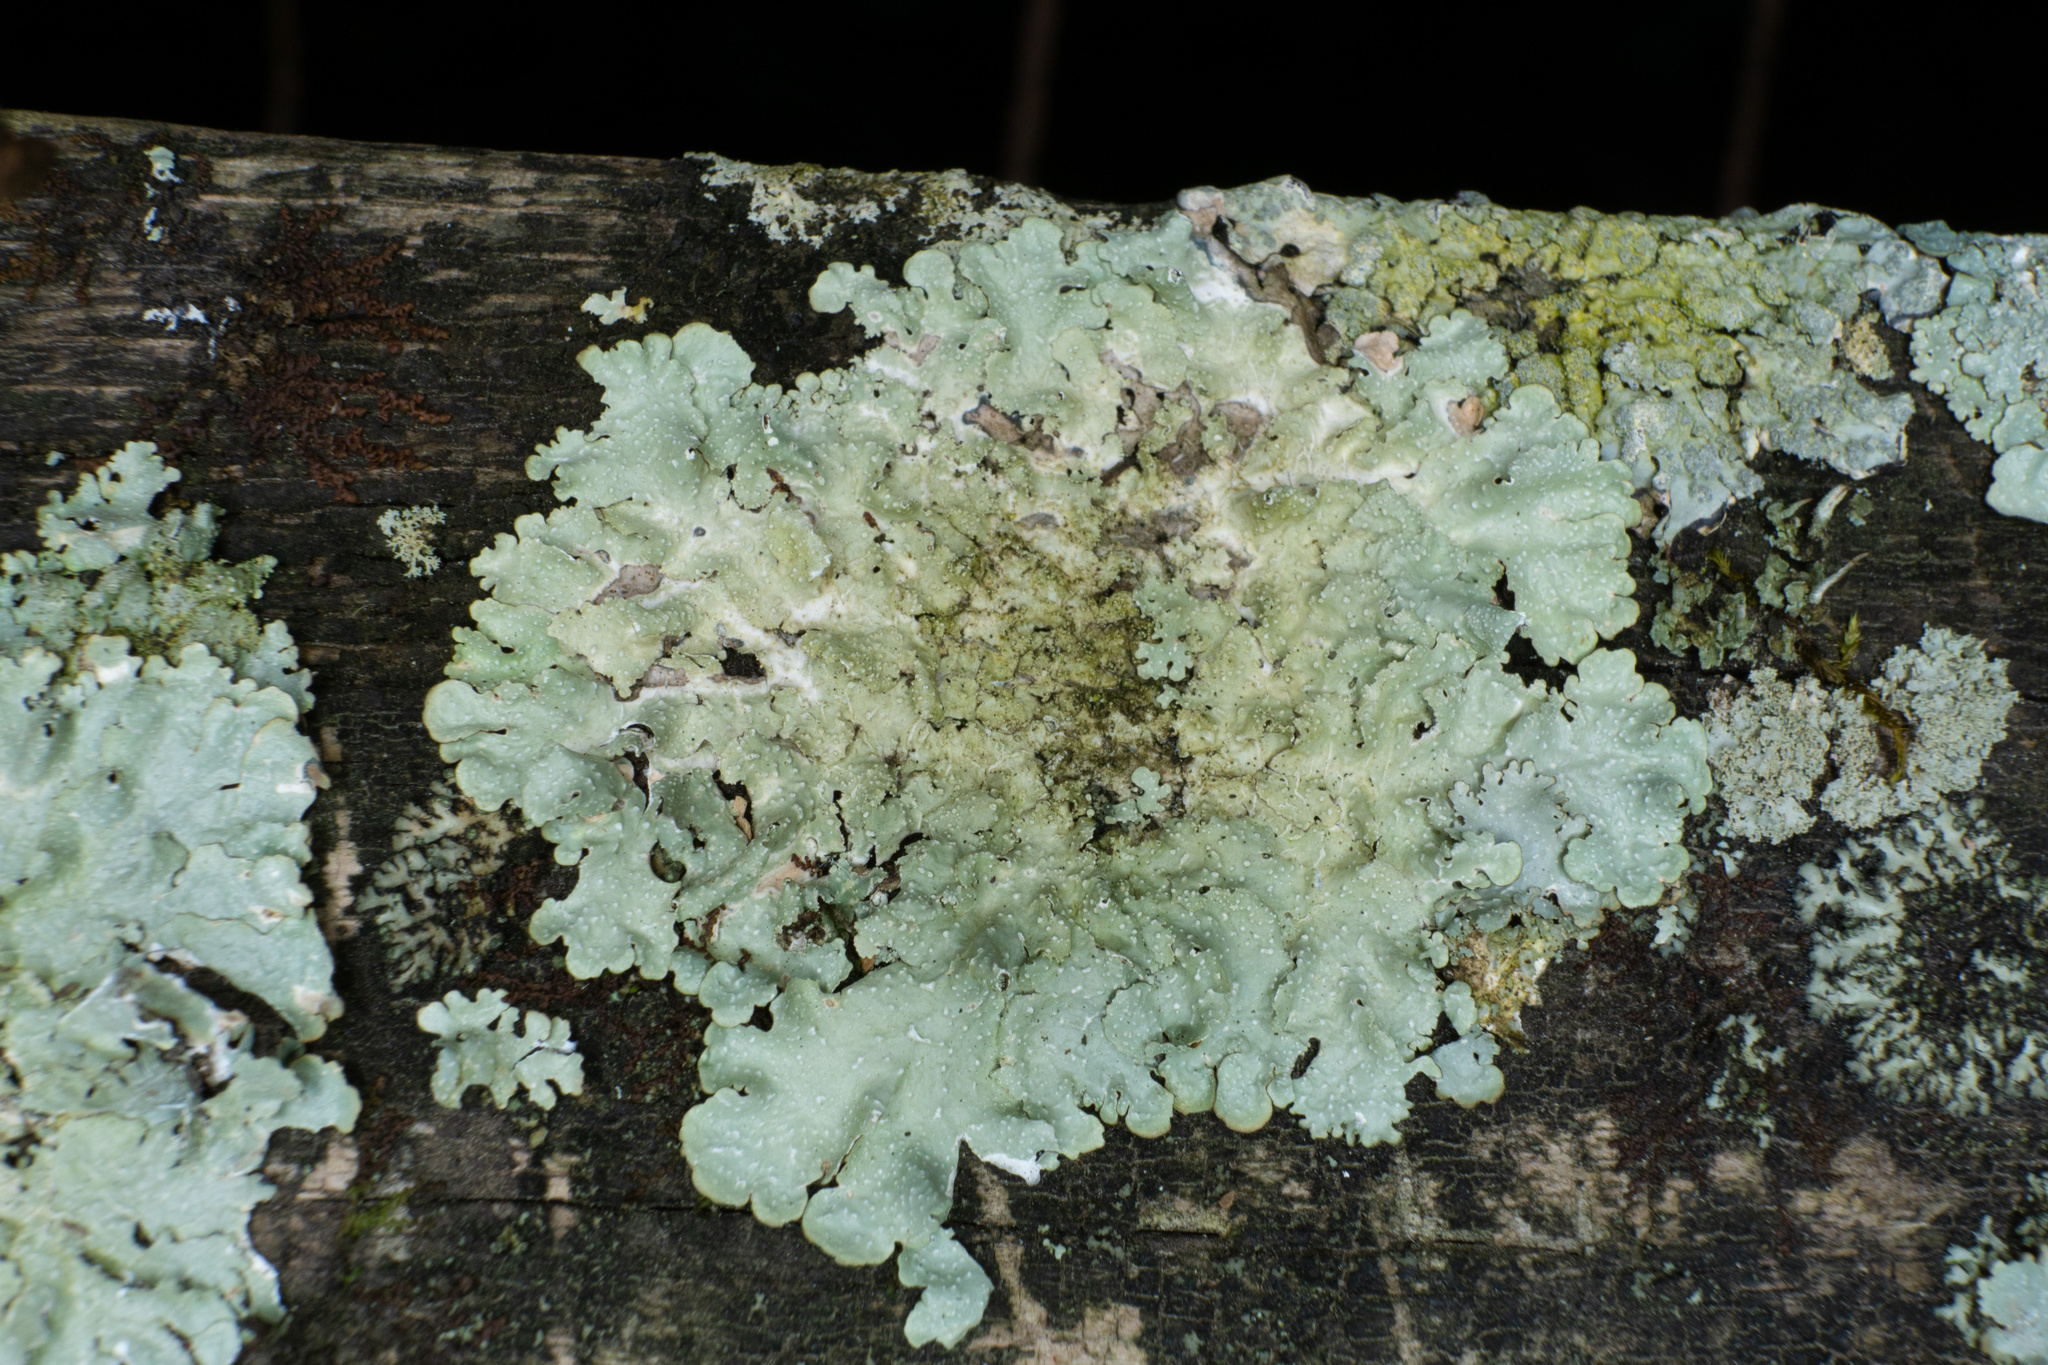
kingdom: Fungi
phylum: Ascomycota
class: Lecanoromycetes
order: Lecanorales
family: Parmeliaceae
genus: Punctelia
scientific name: Punctelia missouriensis
